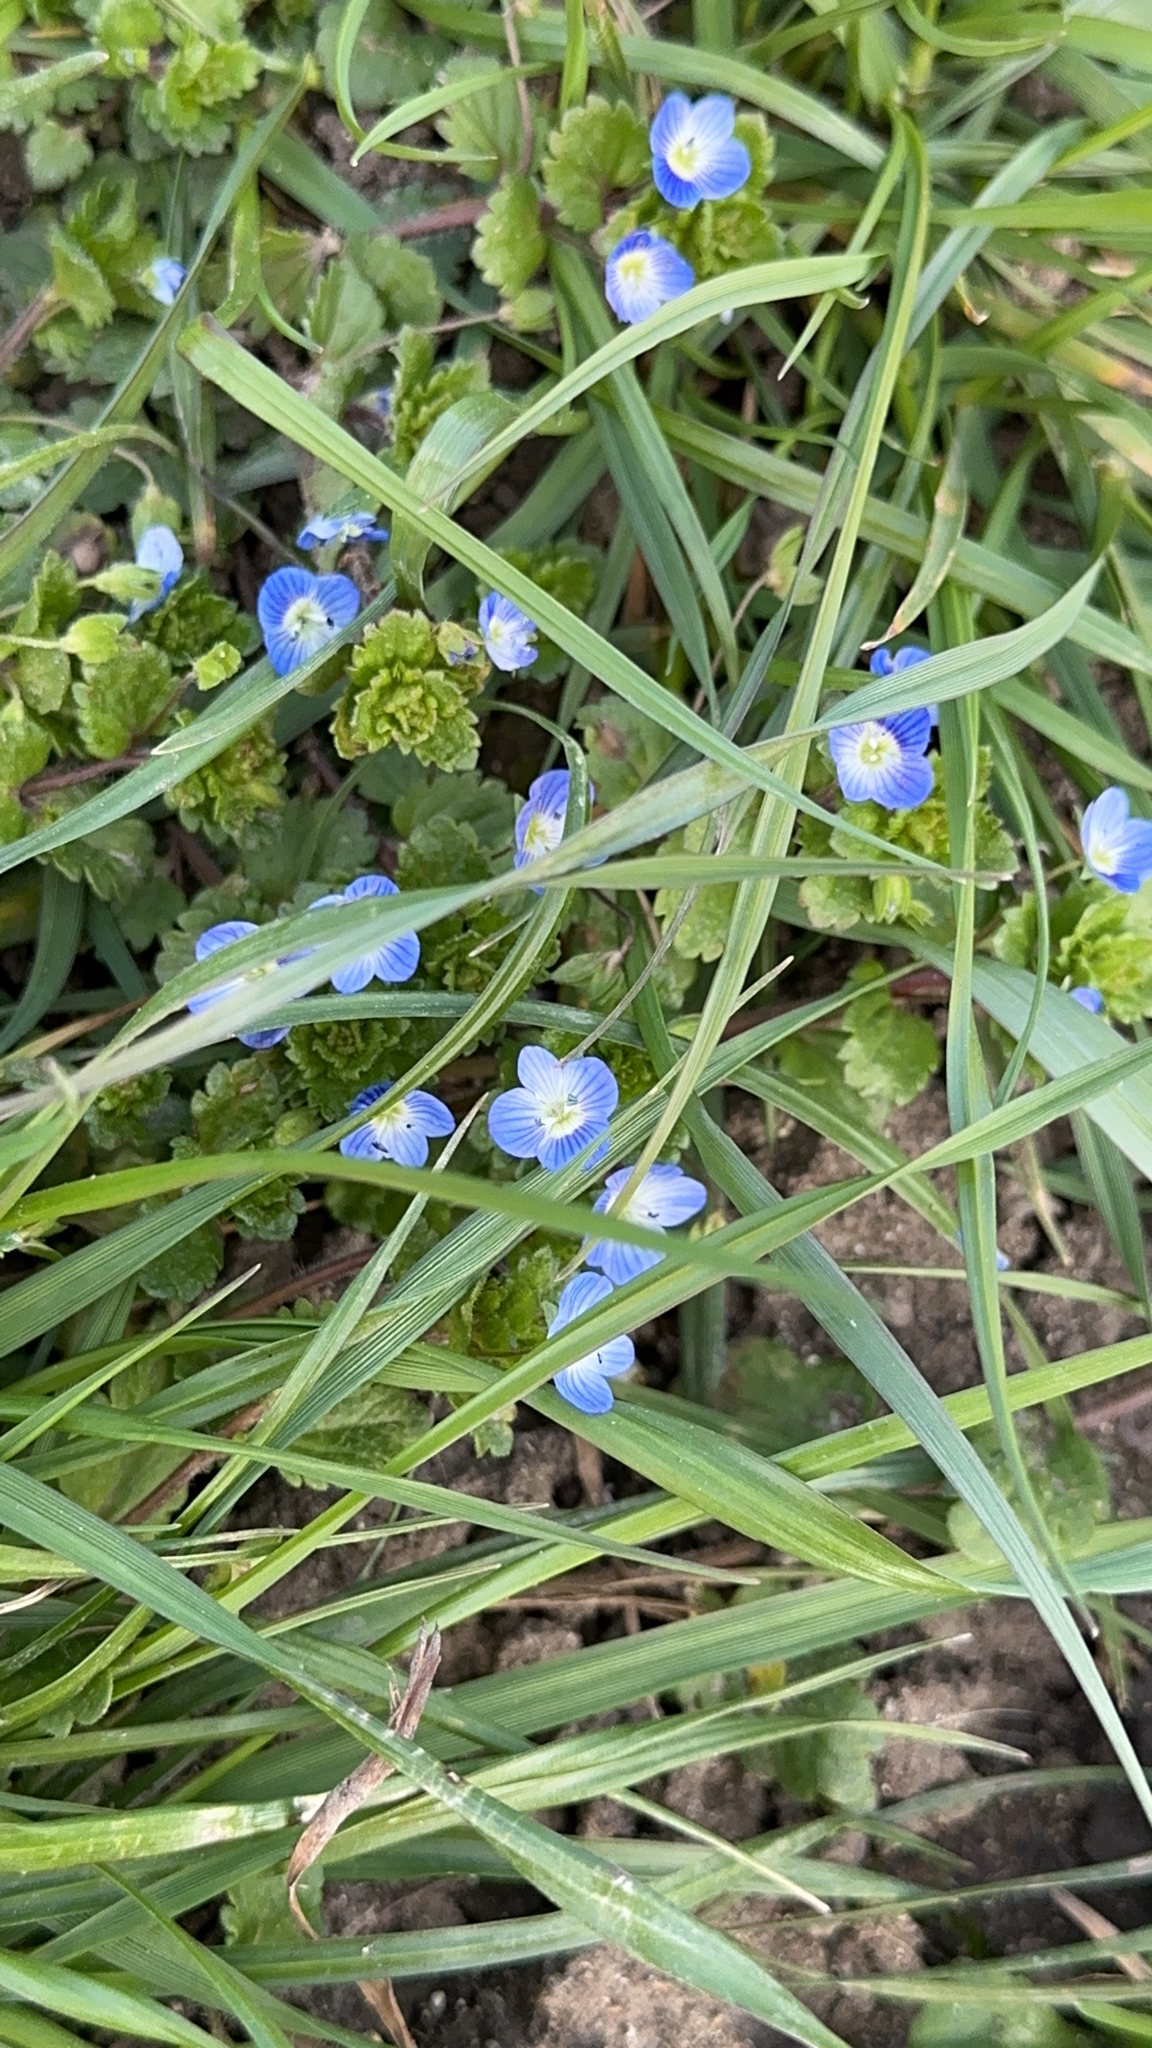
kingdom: Plantae
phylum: Tracheophyta
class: Magnoliopsida
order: Lamiales
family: Plantaginaceae
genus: Veronica
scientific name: Veronica persica
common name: Common field-speedwell
